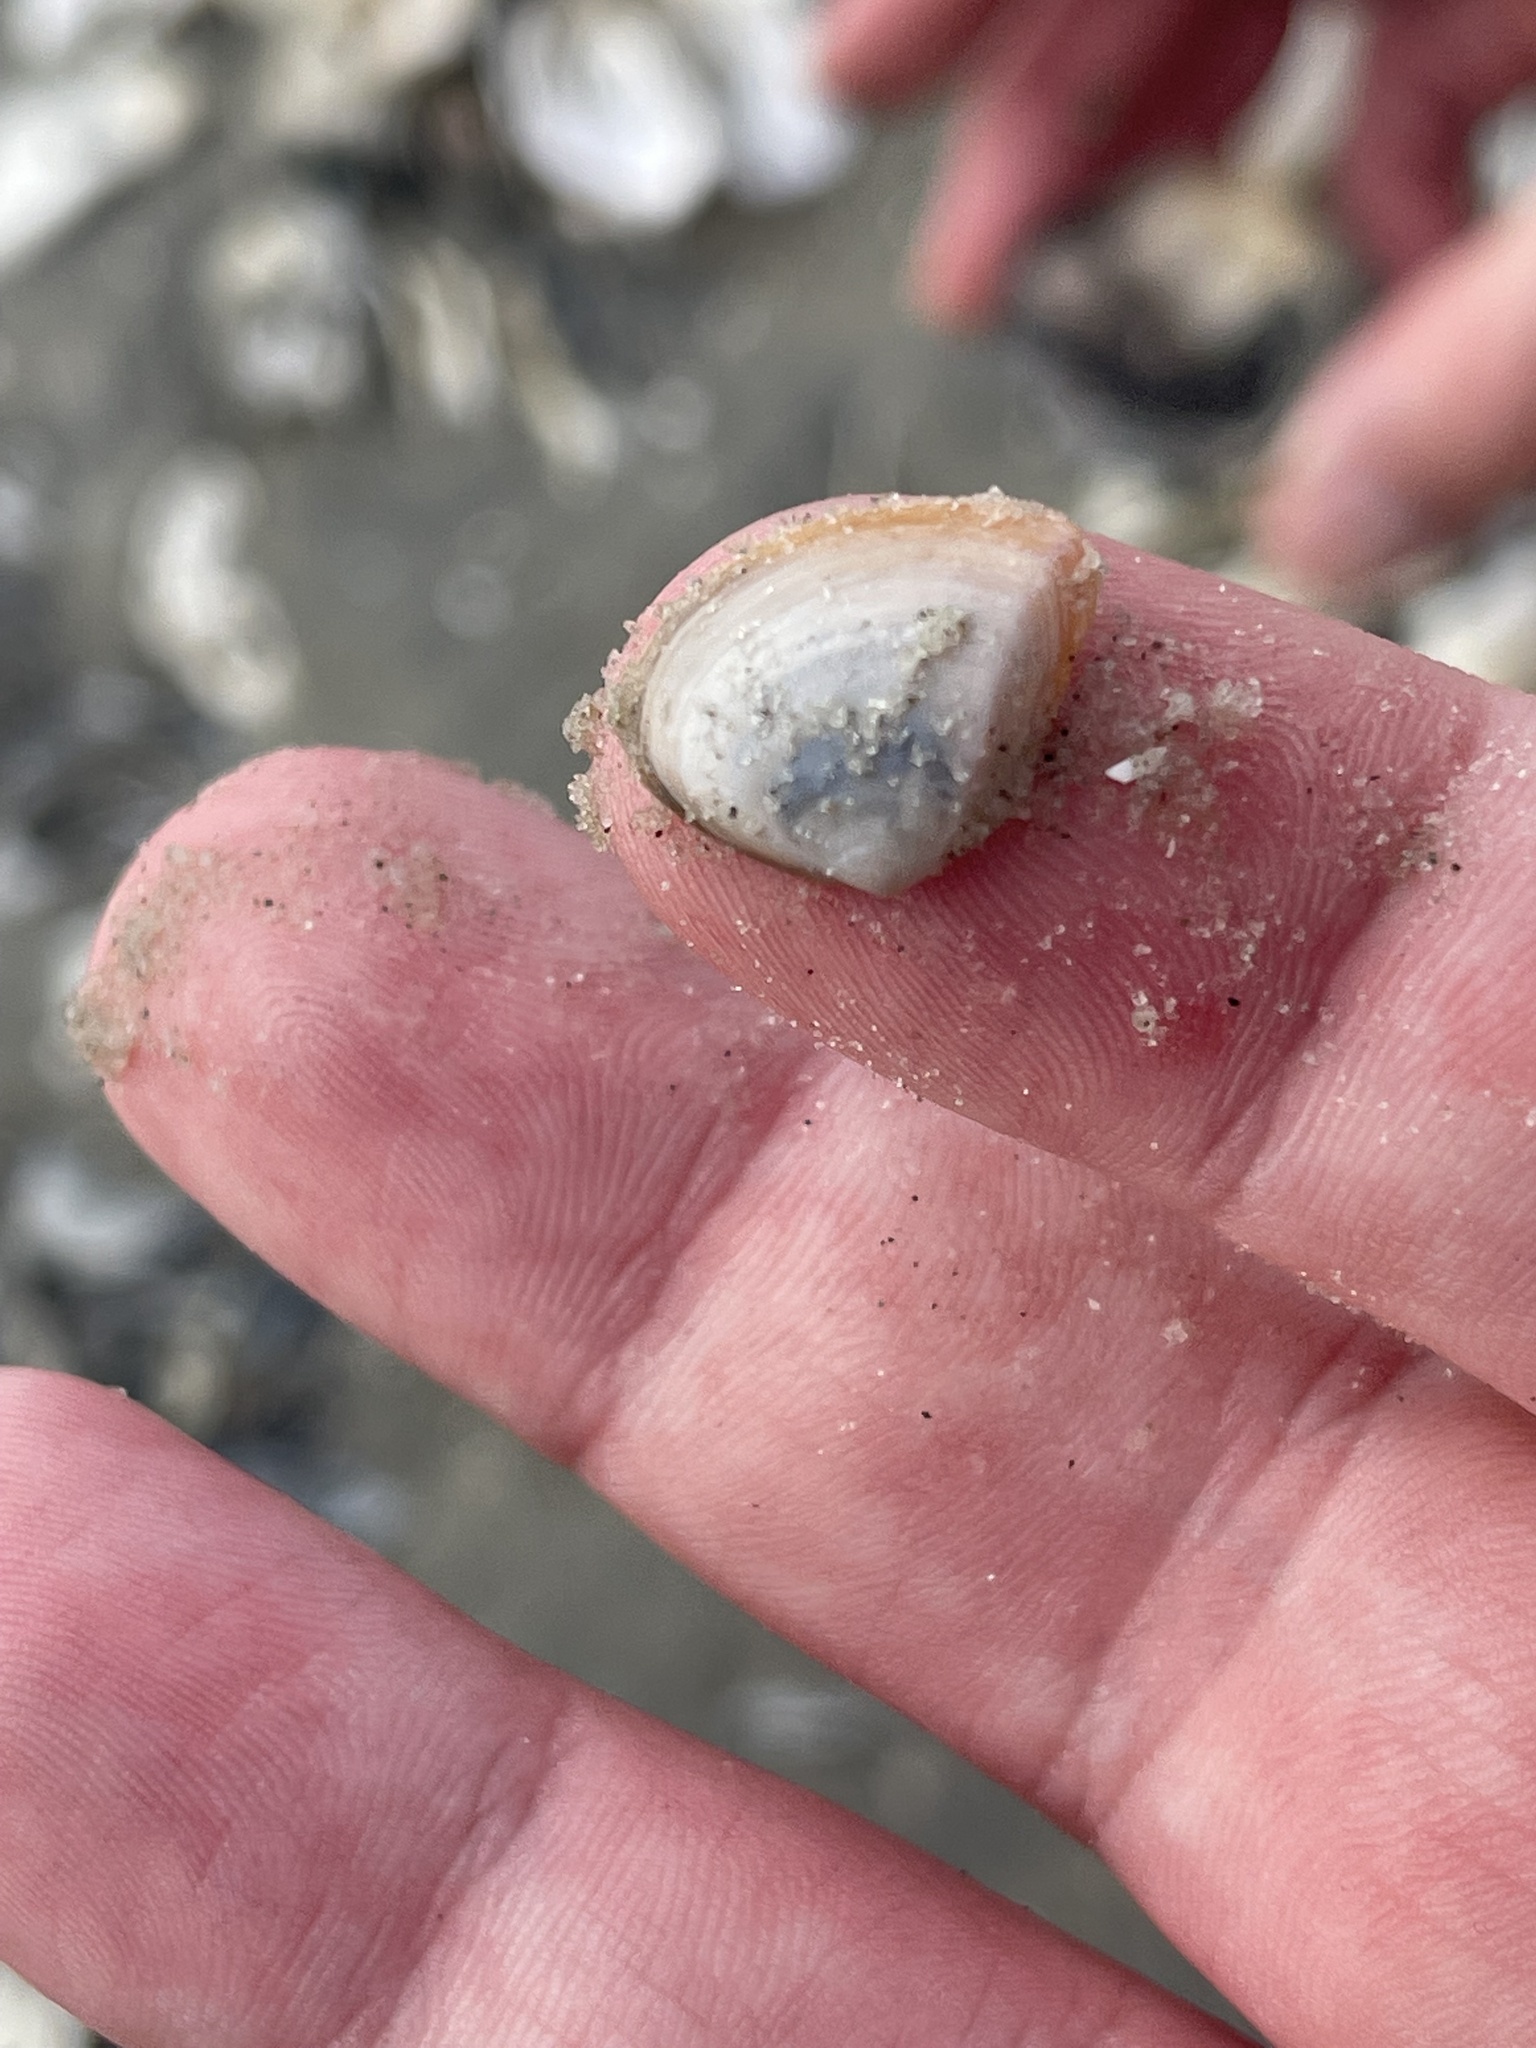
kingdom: Animalia
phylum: Mollusca
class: Bivalvia
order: Venerida
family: Mactridae
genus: Mulinia
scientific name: Mulinia lateralis
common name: Dwarf surfclam
